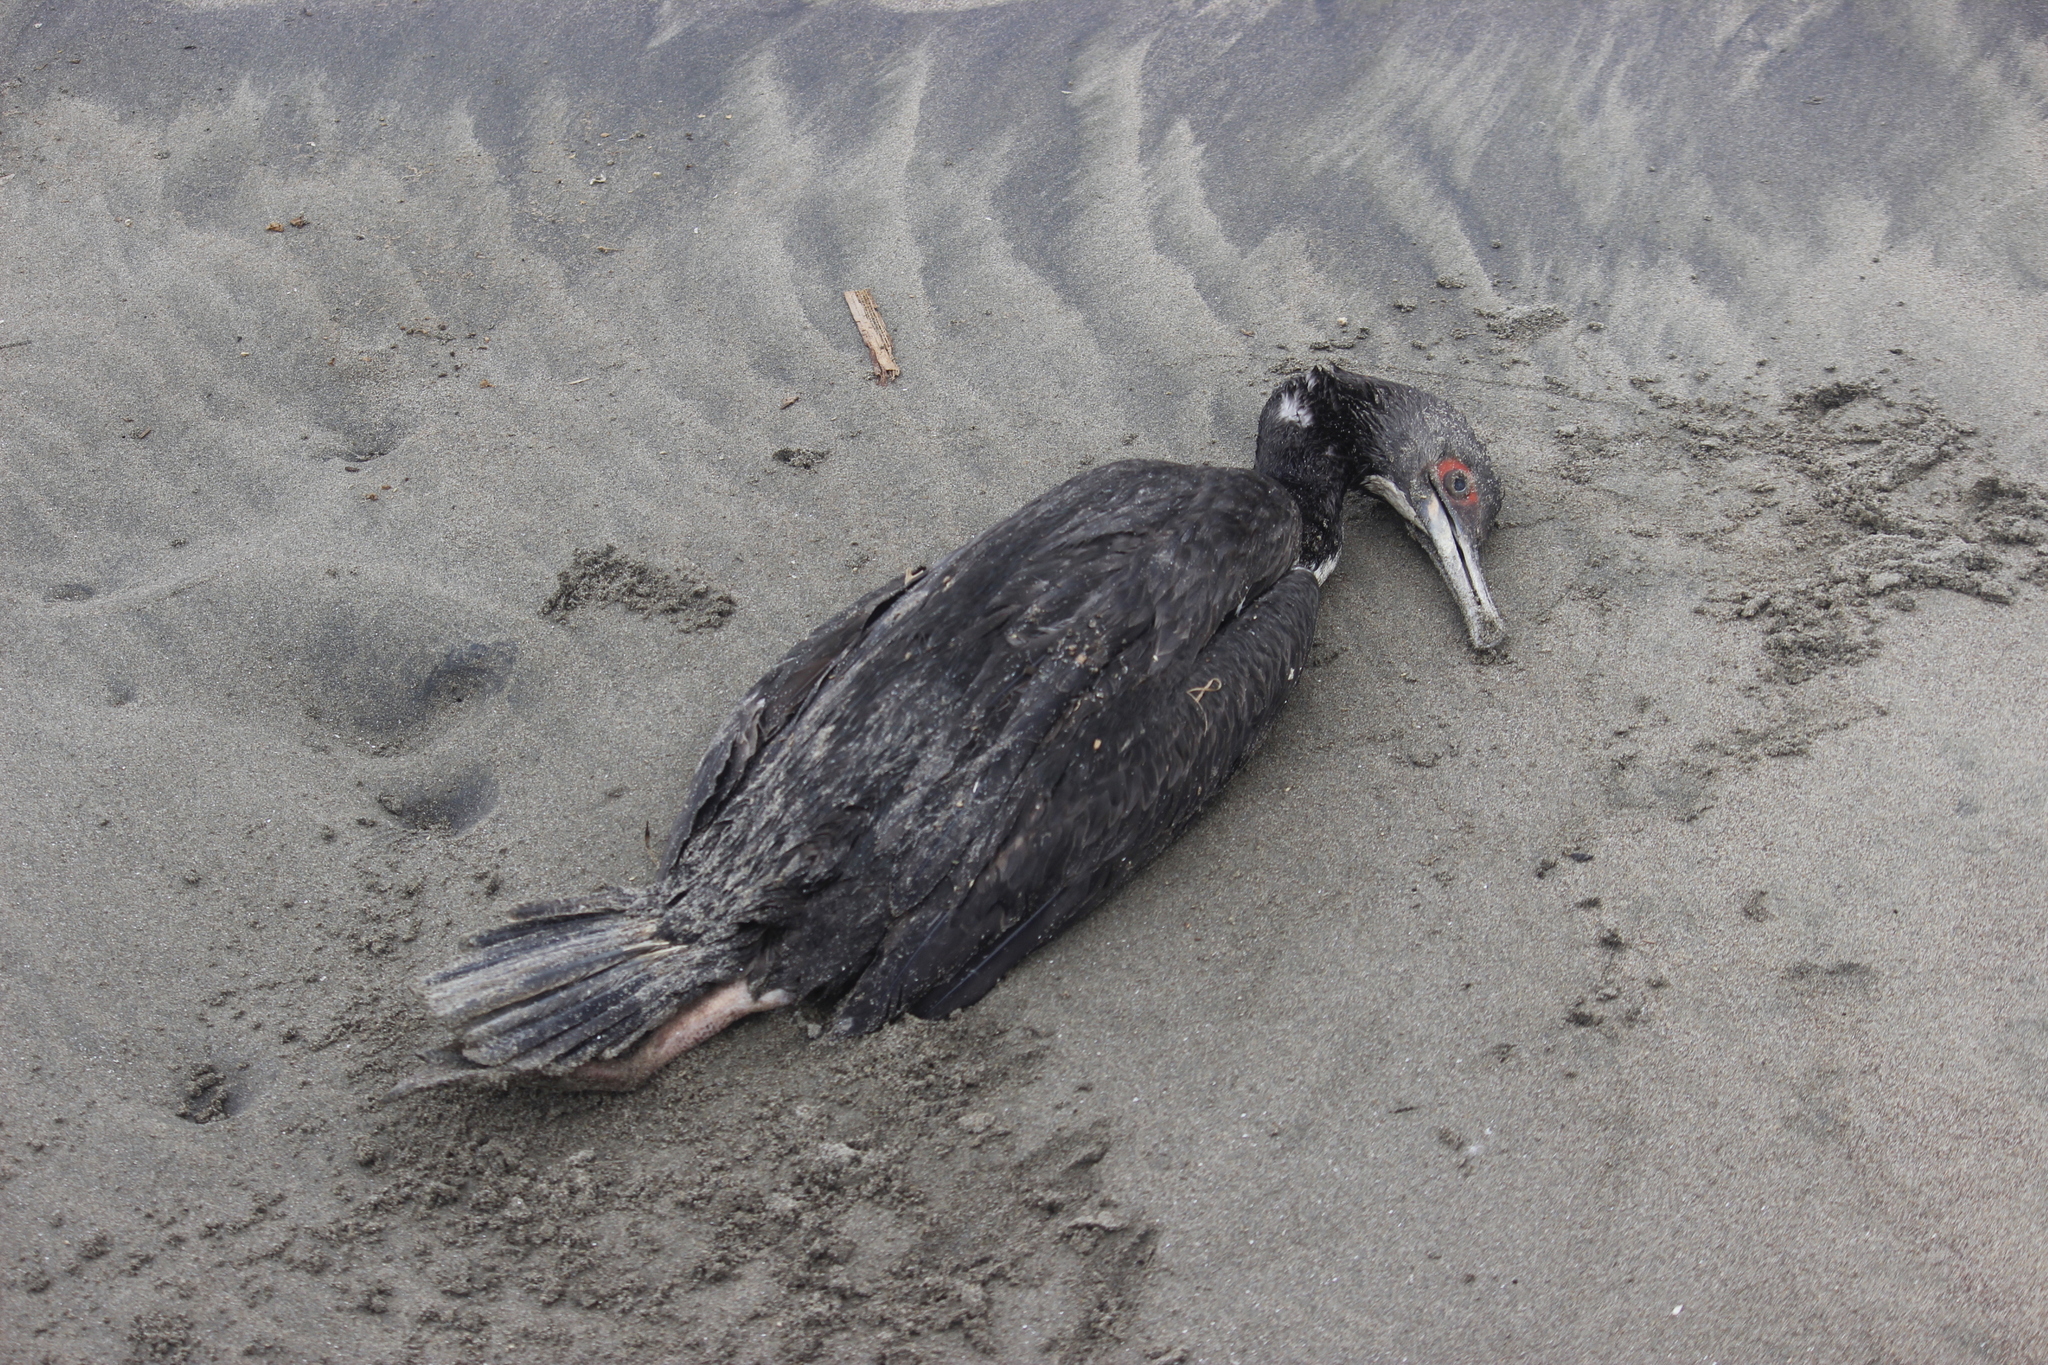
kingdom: Animalia
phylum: Chordata
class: Aves
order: Suliformes
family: Phalacrocoracidae
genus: Leucocarbo
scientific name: Leucocarbo bougainvillii
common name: Guanay cormorant
